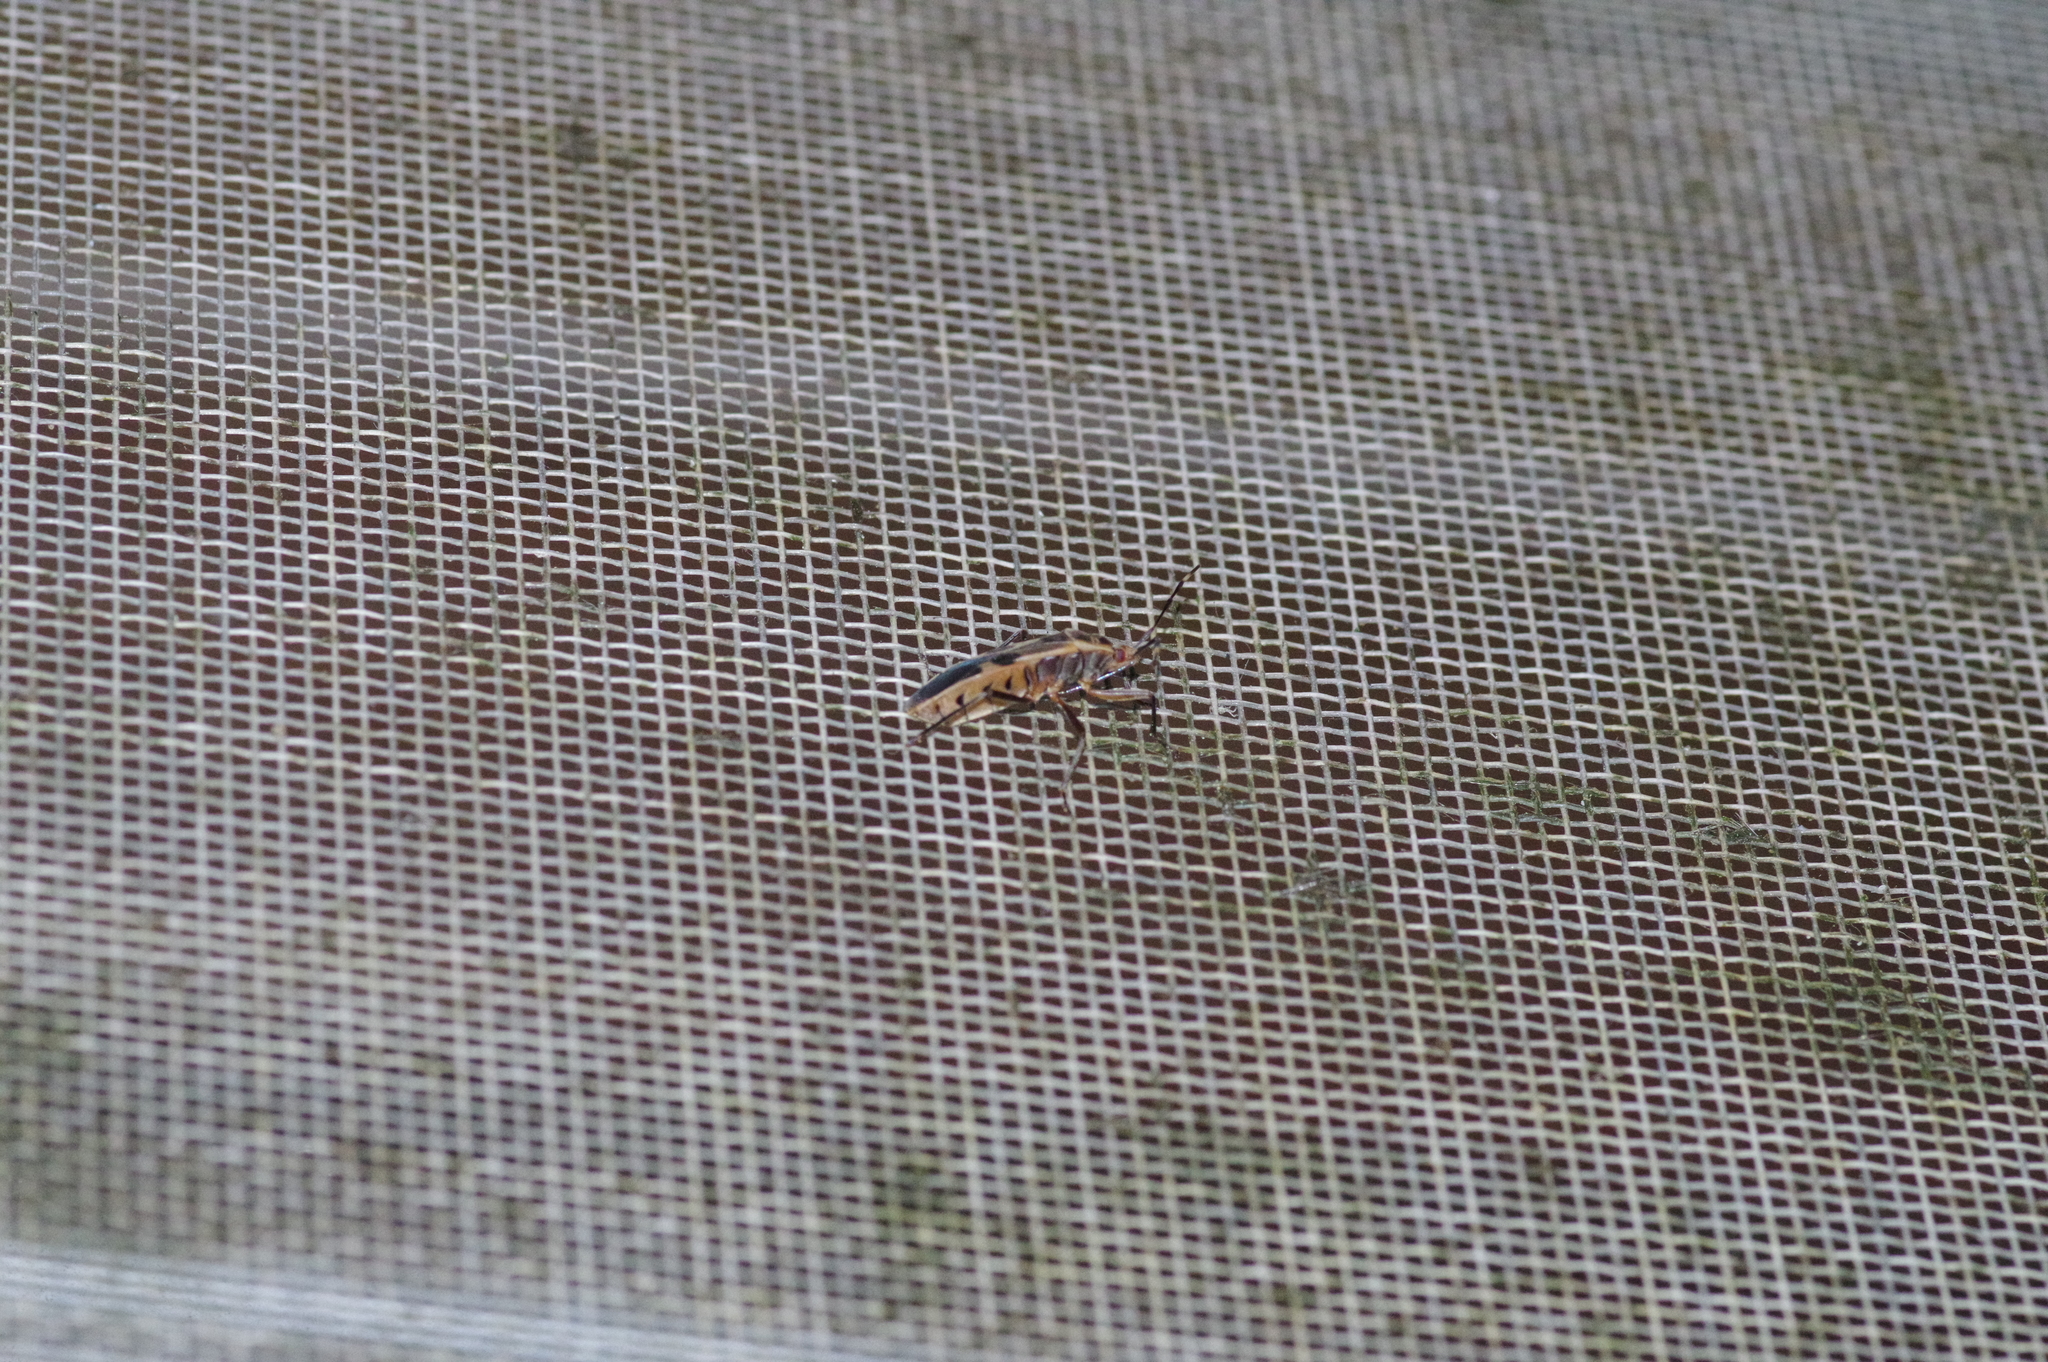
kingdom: Animalia
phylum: Arthropoda
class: Insecta
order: Hemiptera
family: Largidae
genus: Physopelta
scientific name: Physopelta gutta
